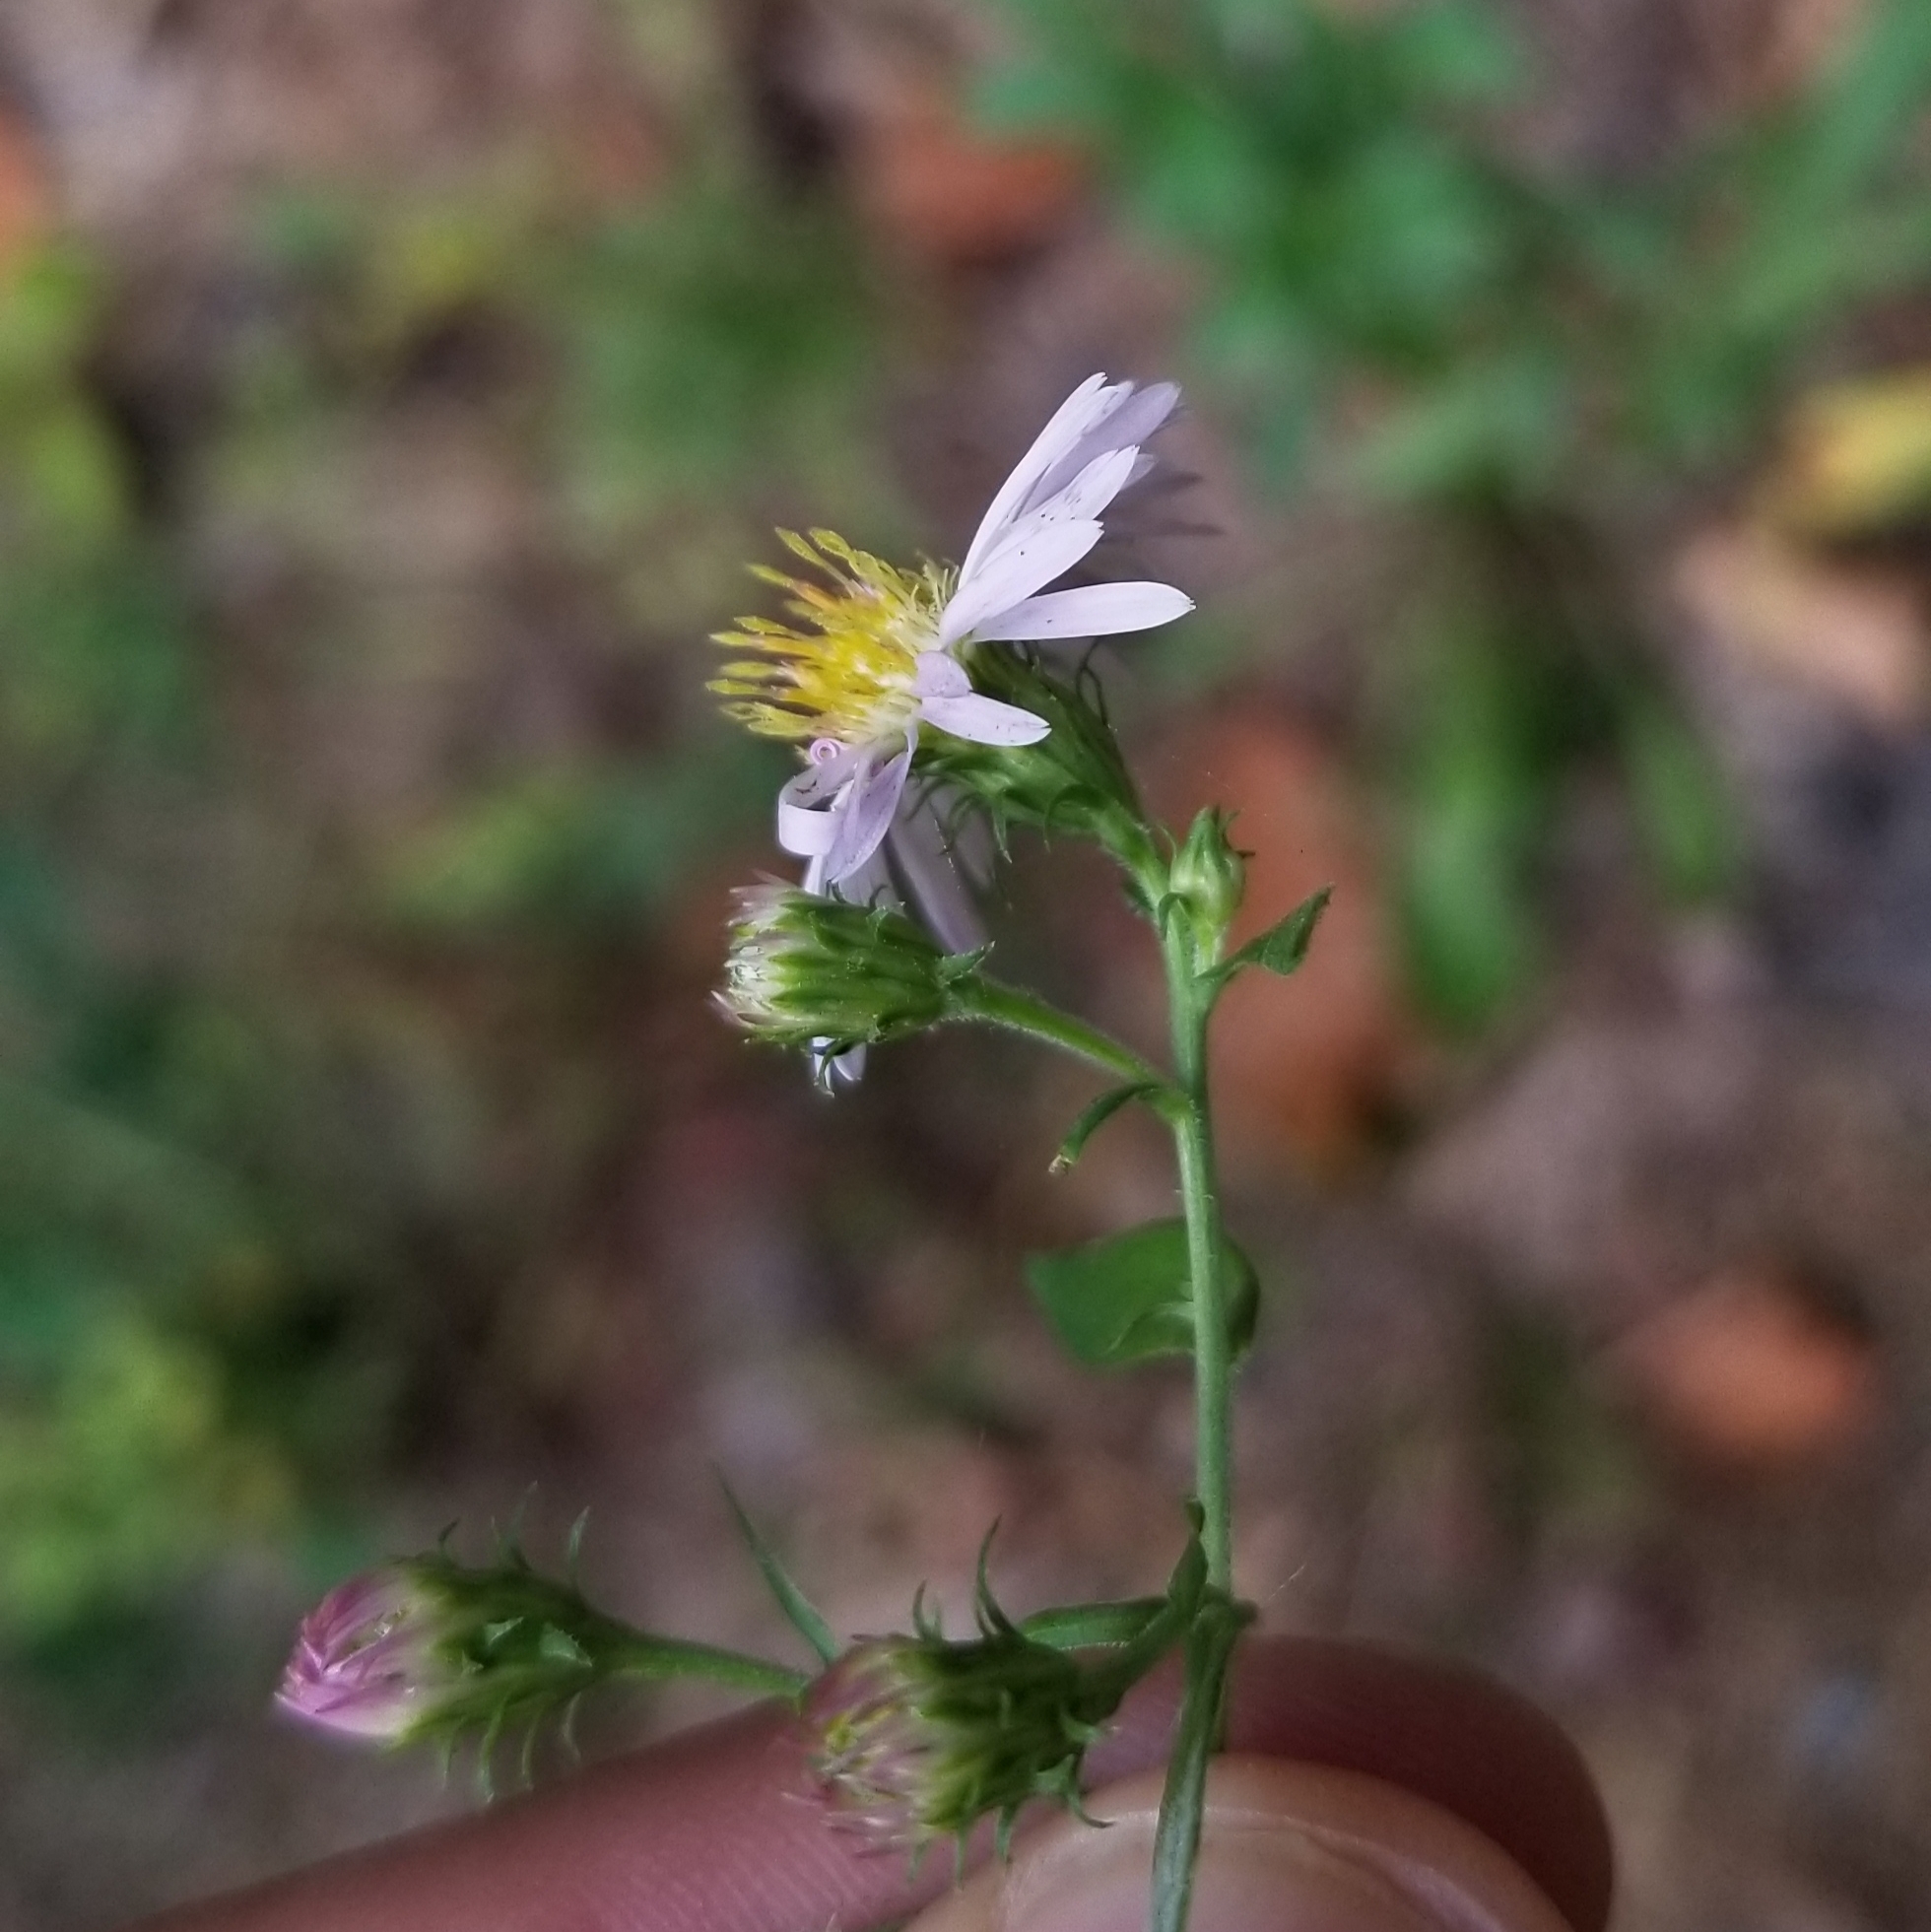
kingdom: Plantae
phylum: Tracheophyta
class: Magnoliopsida
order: Asterales
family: Asteraceae
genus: Symphyotrichum
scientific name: Symphyotrichum lanceolatum
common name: Panicled aster
